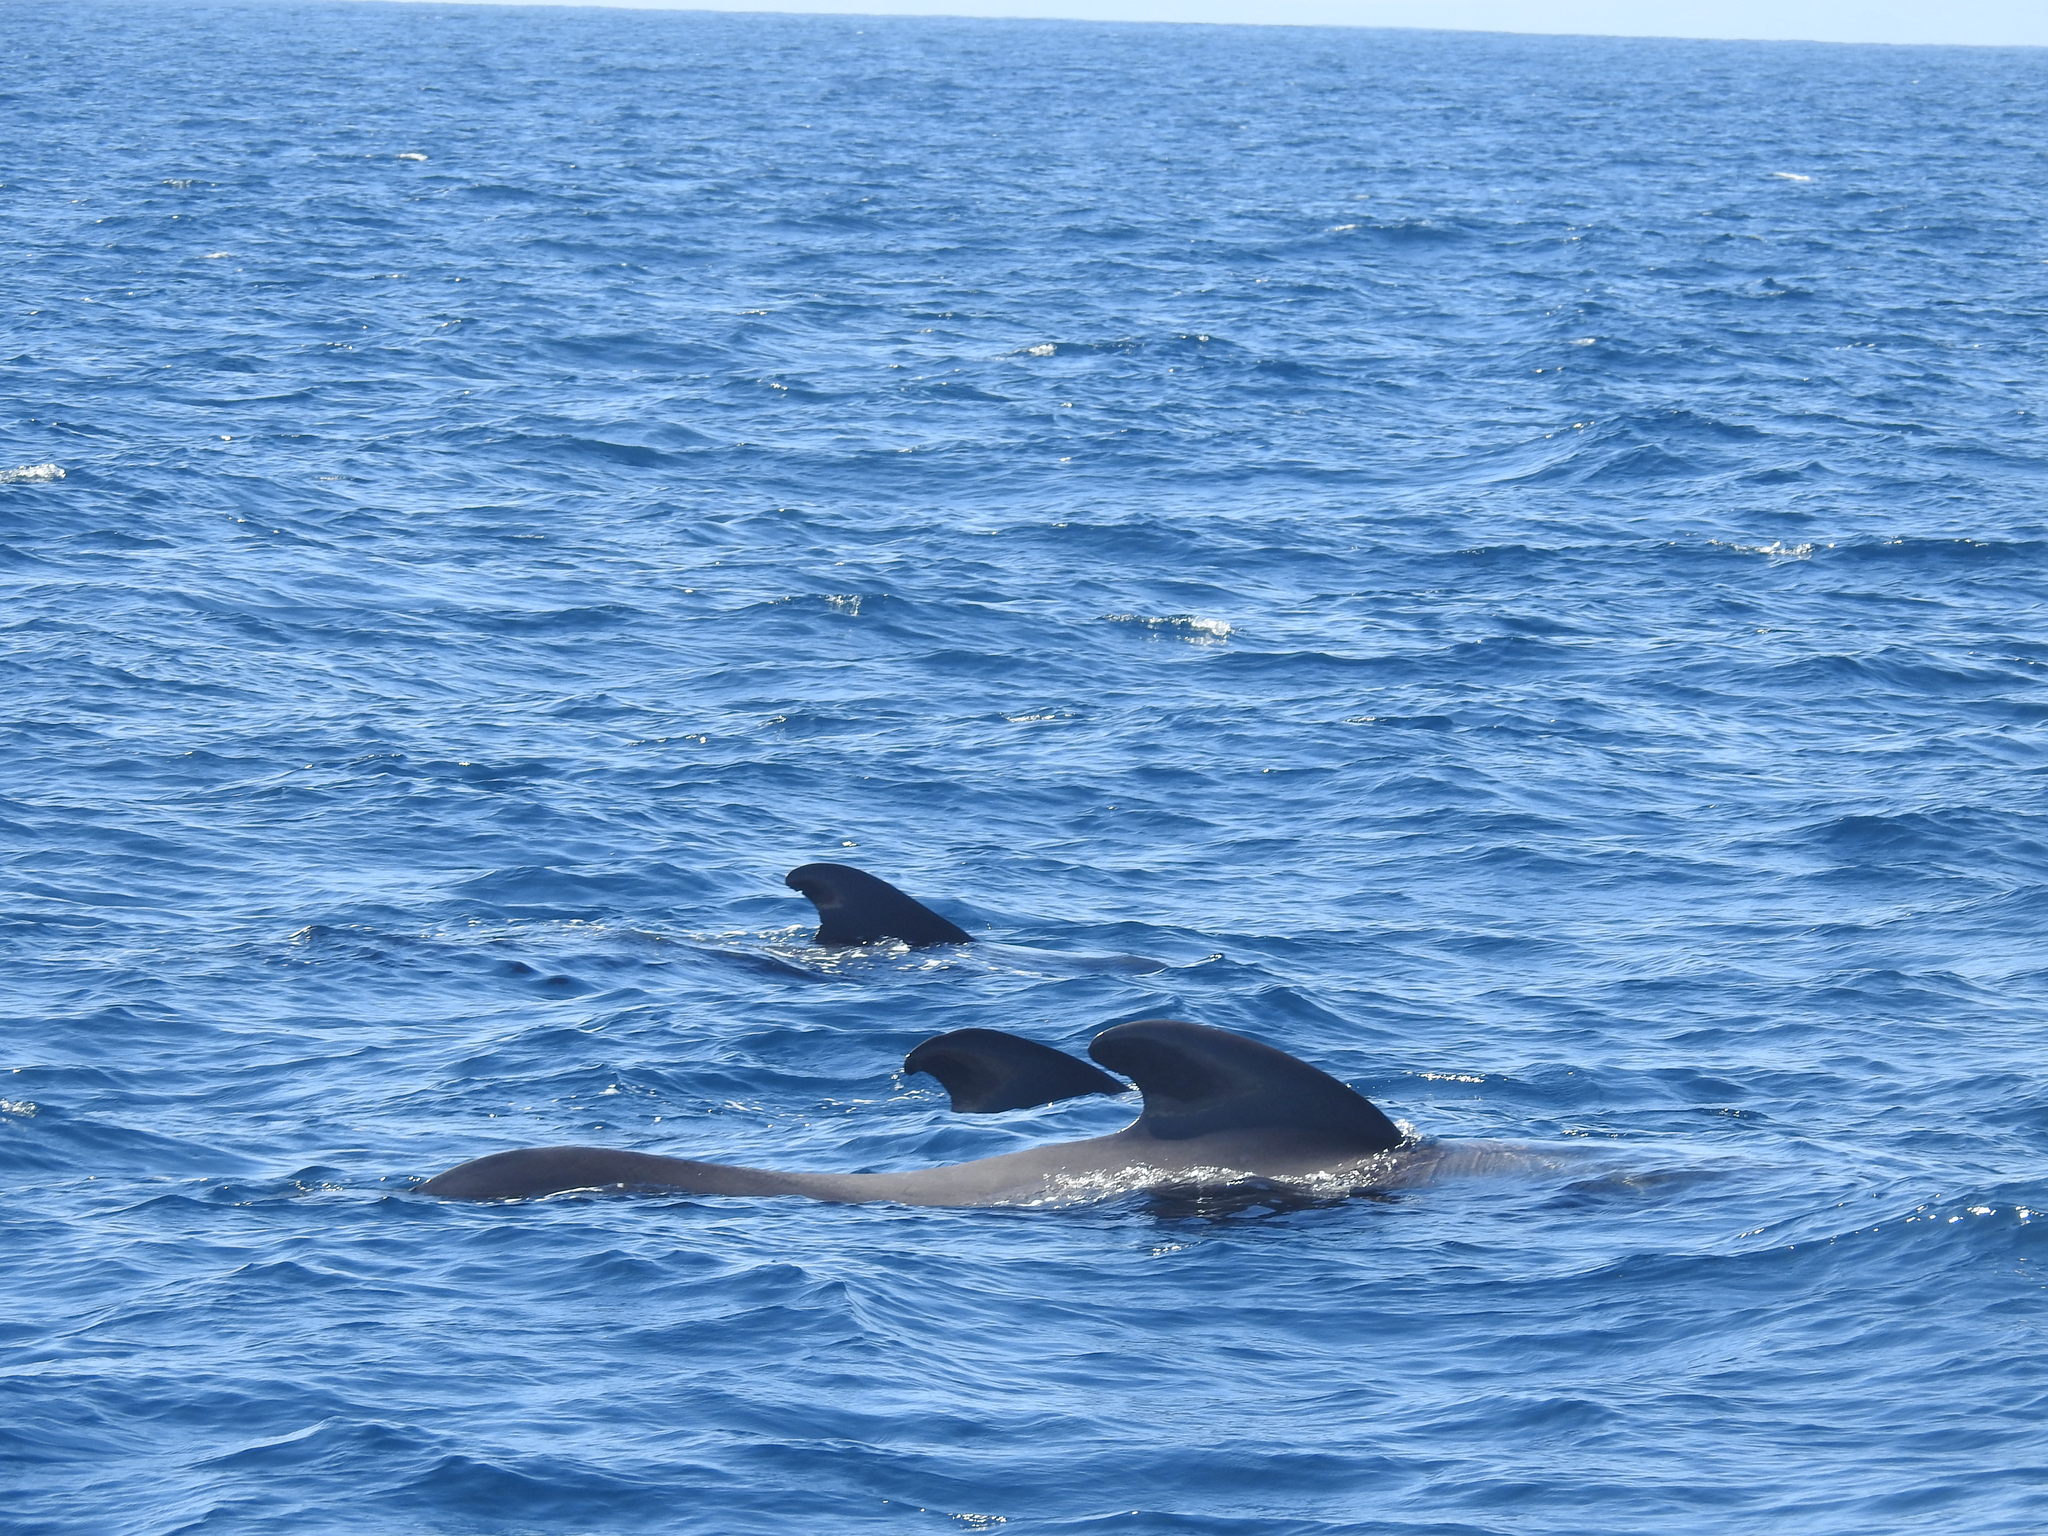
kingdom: Animalia
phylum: Chordata
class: Mammalia
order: Cetacea
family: Delphinidae
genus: Globicephala
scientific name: Globicephala macrorhynchus
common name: Short-finned pilot whale
